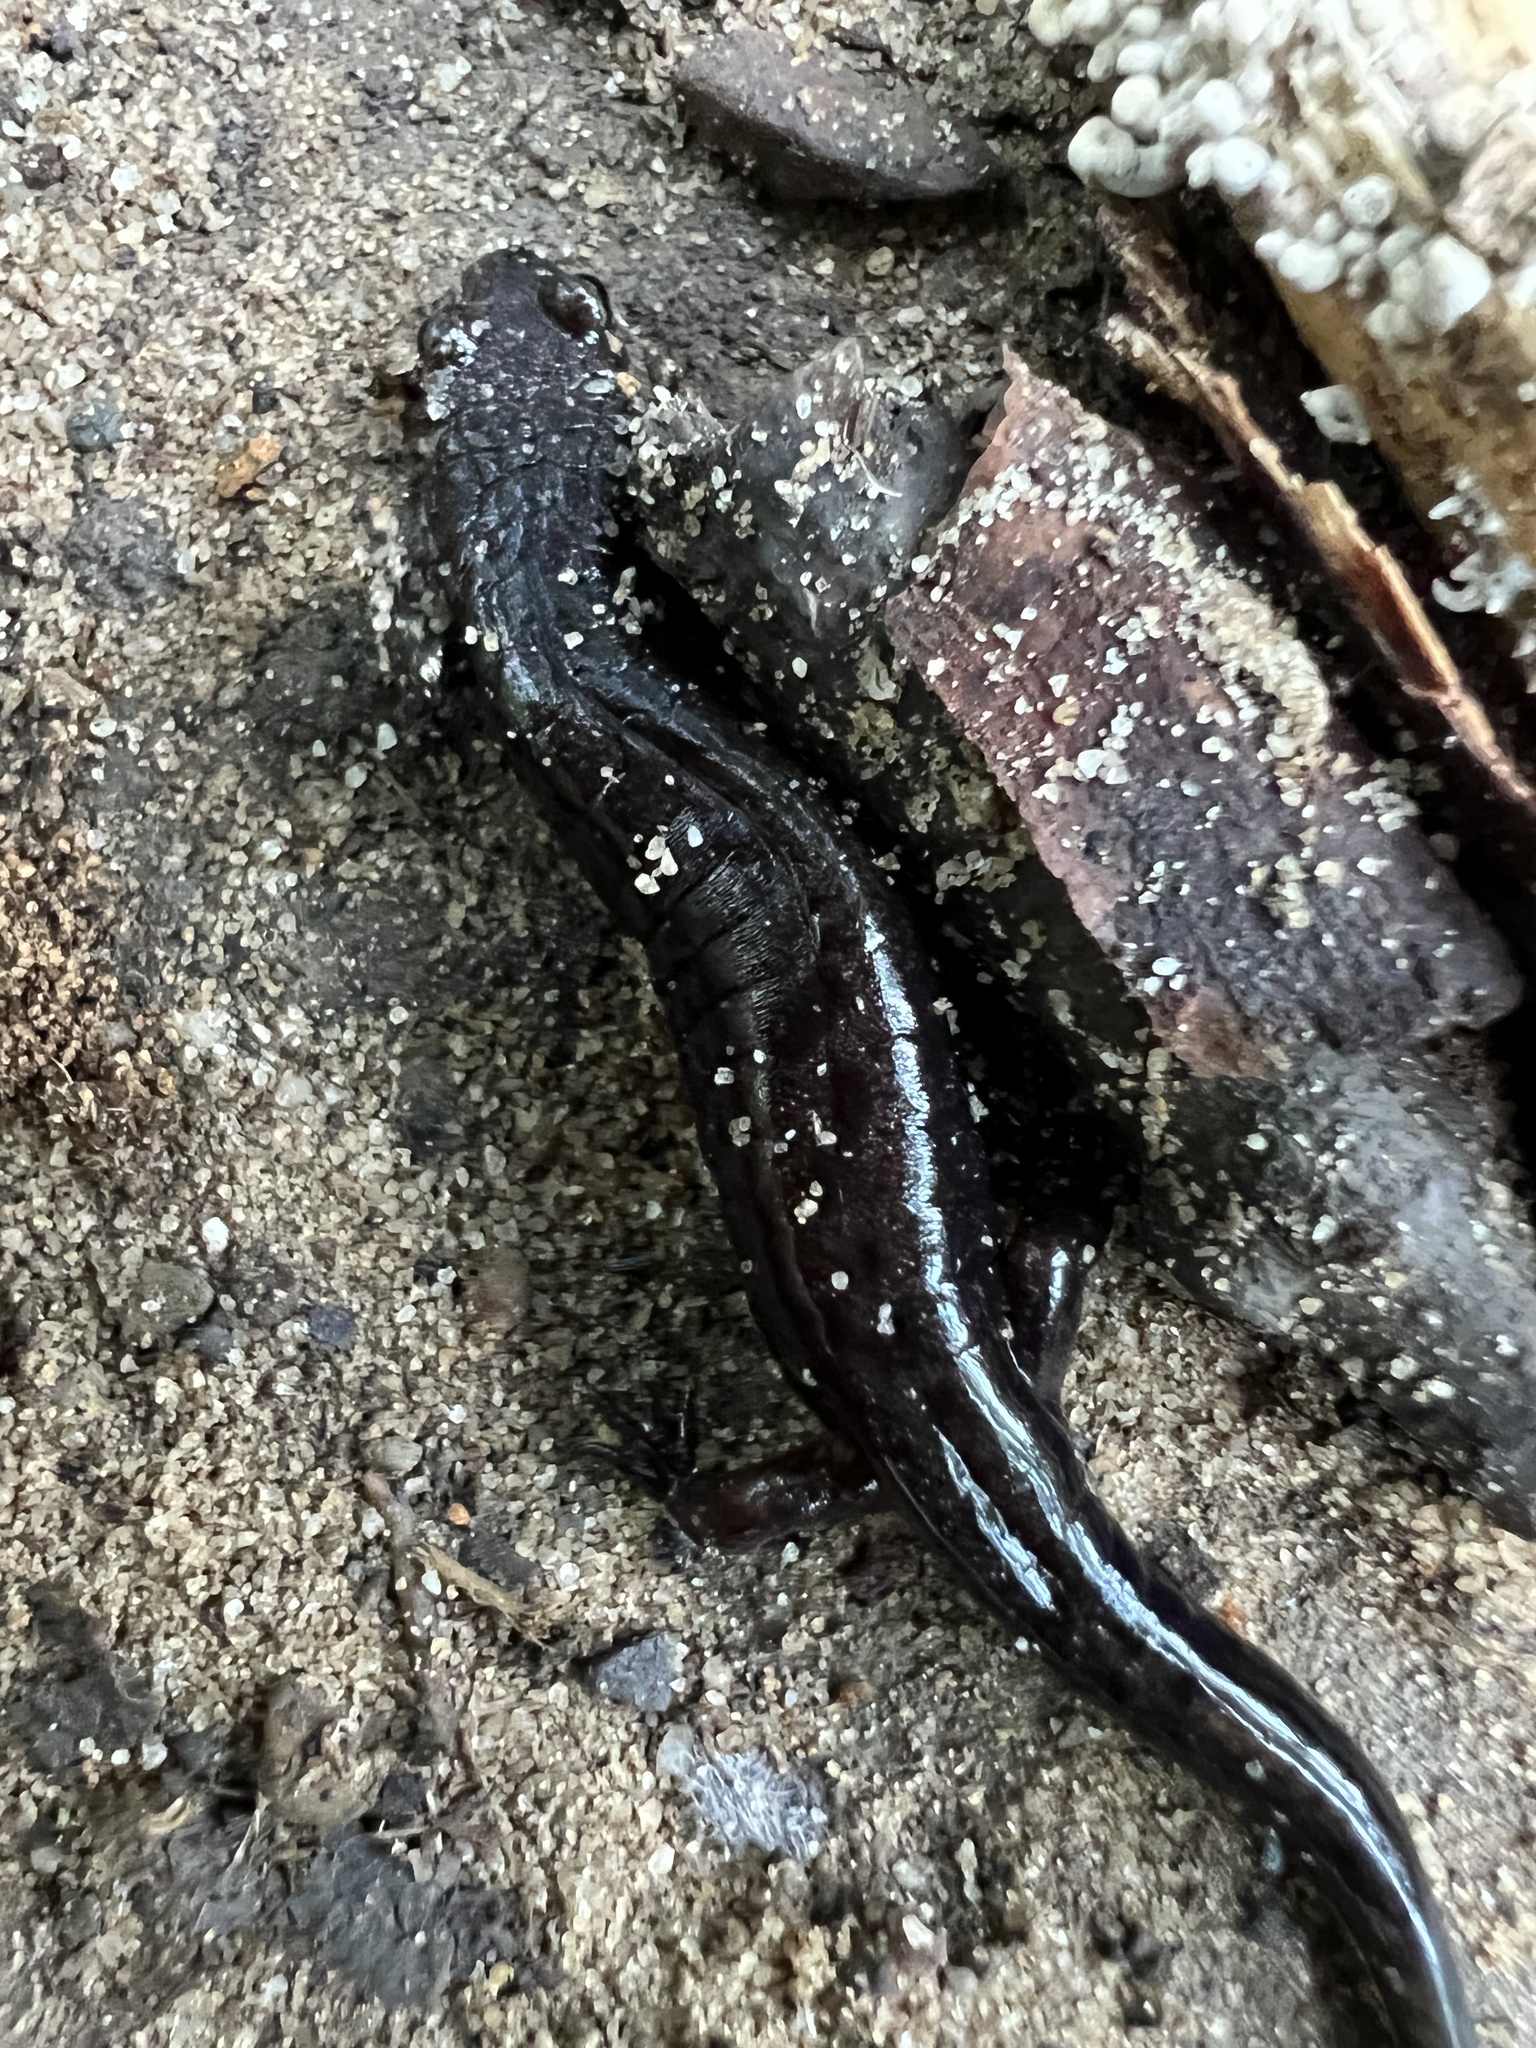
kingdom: Animalia
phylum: Chordata
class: Amphibia
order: Caudata
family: Plethodontidae
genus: Desmognathus
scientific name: Desmognathus ochrophaeus
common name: Allegheny mountain dusky salamander
